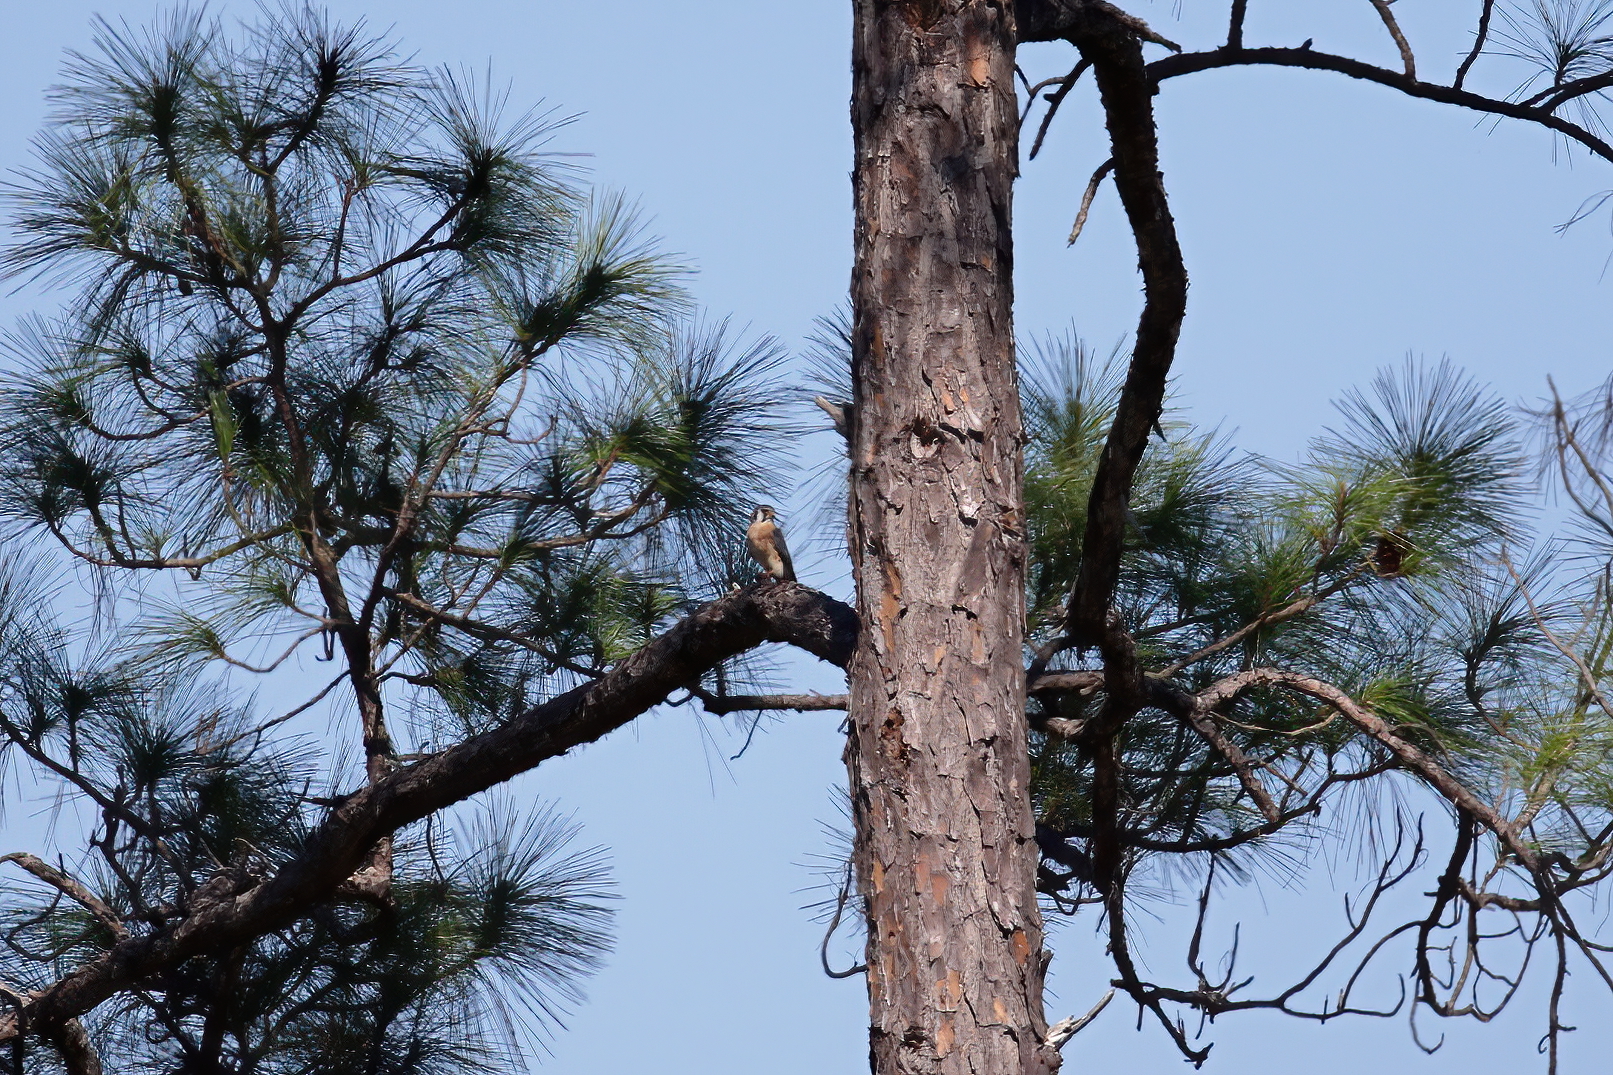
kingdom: Animalia
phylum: Chordata
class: Aves
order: Falconiformes
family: Falconidae
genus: Falco
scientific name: Falco sparverius
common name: American kestrel
